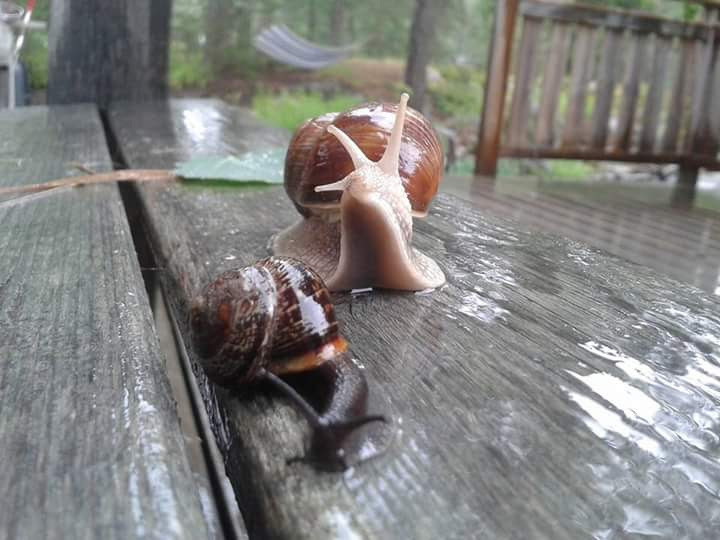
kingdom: Animalia
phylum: Mollusca
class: Gastropoda
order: Stylommatophora
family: Helicidae
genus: Arianta
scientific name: Arianta arbustorum
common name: Copse snail
